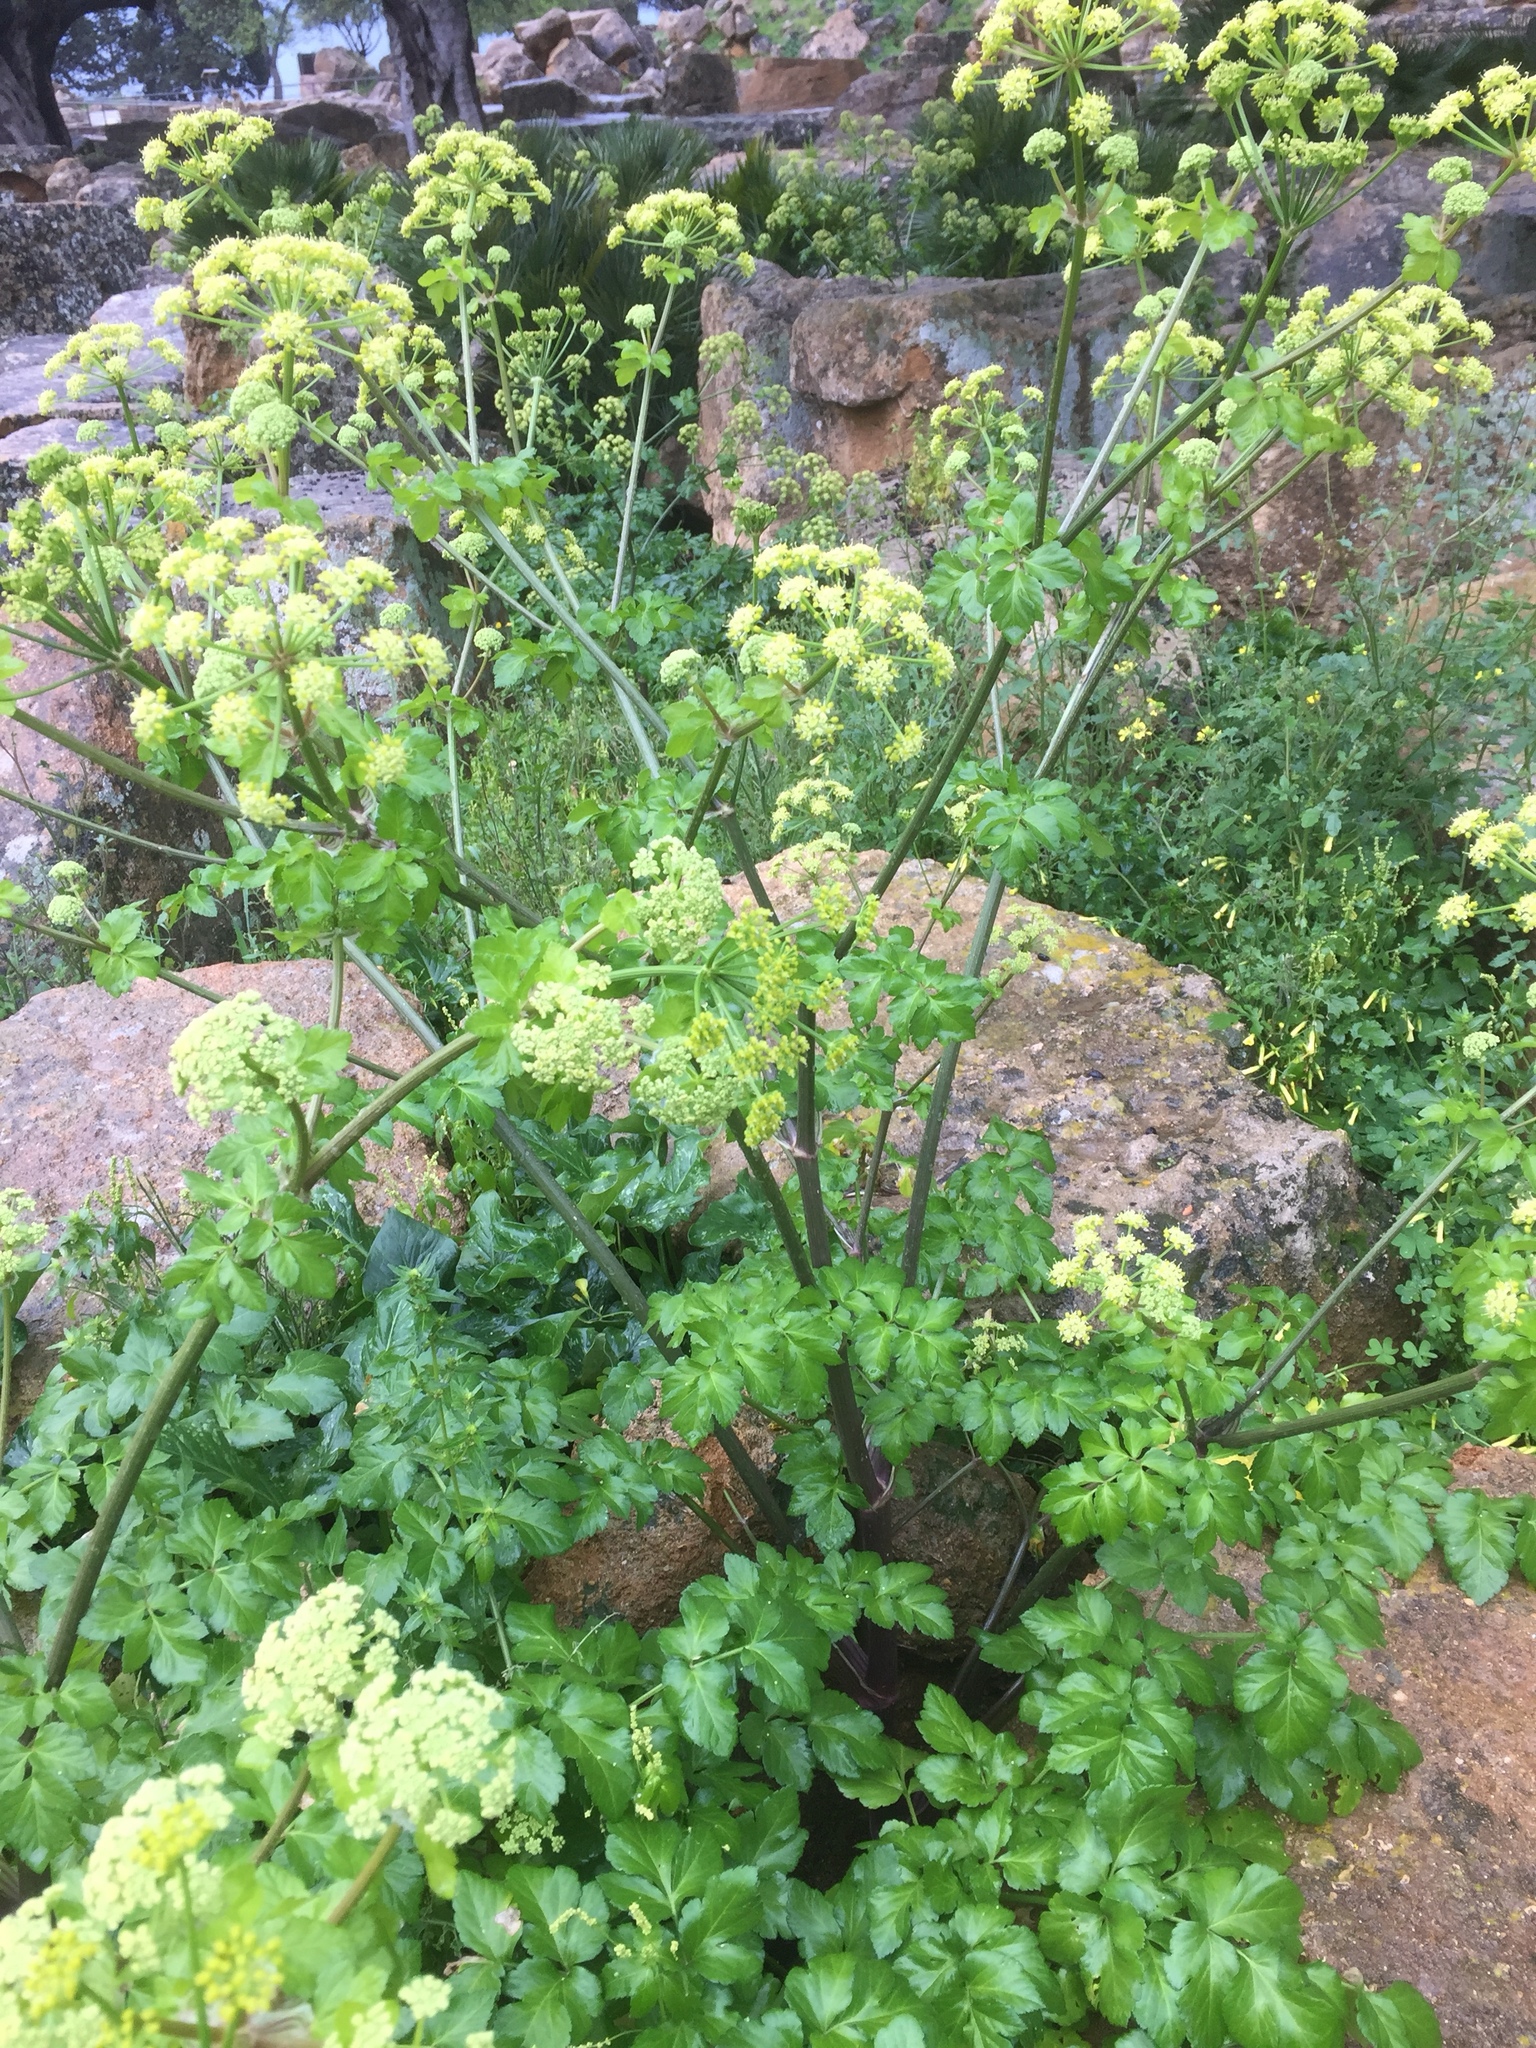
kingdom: Plantae
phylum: Tracheophyta
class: Magnoliopsida
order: Apiales
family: Apiaceae
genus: Smyrnium
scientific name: Smyrnium olusatrum
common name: Alexanders
